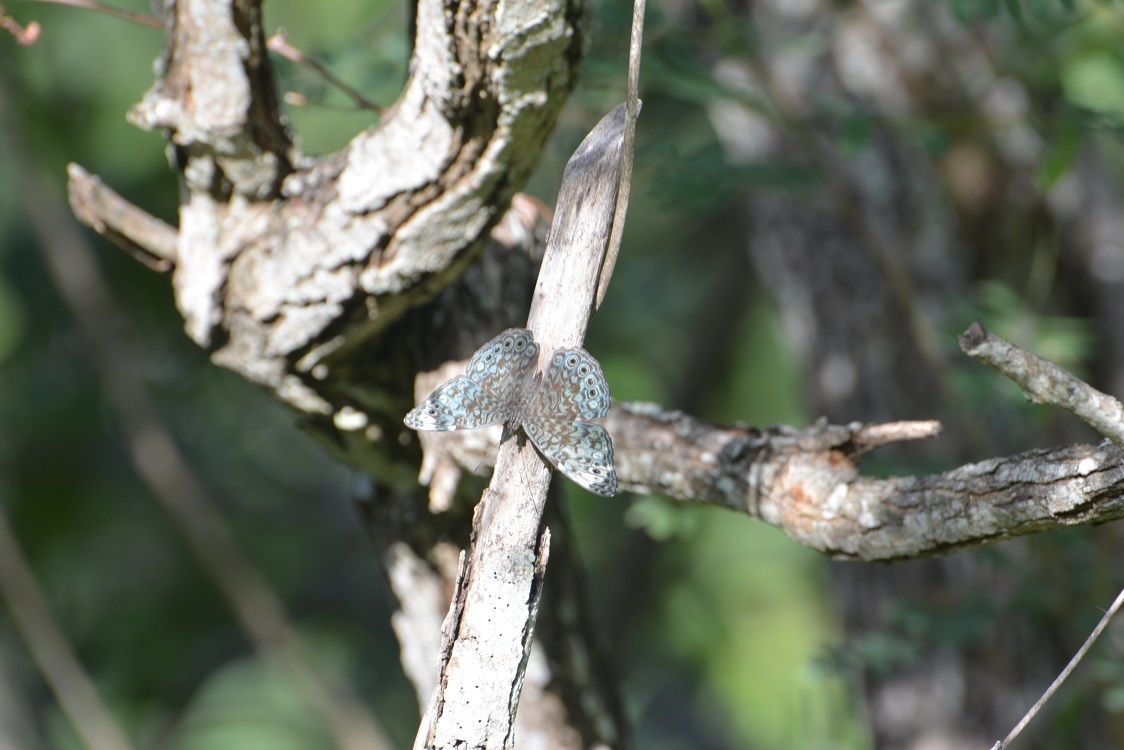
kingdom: Animalia
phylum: Arthropoda
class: Insecta
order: Lepidoptera
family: Nymphalidae
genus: Hamadryas
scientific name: Hamadryas atlantis
